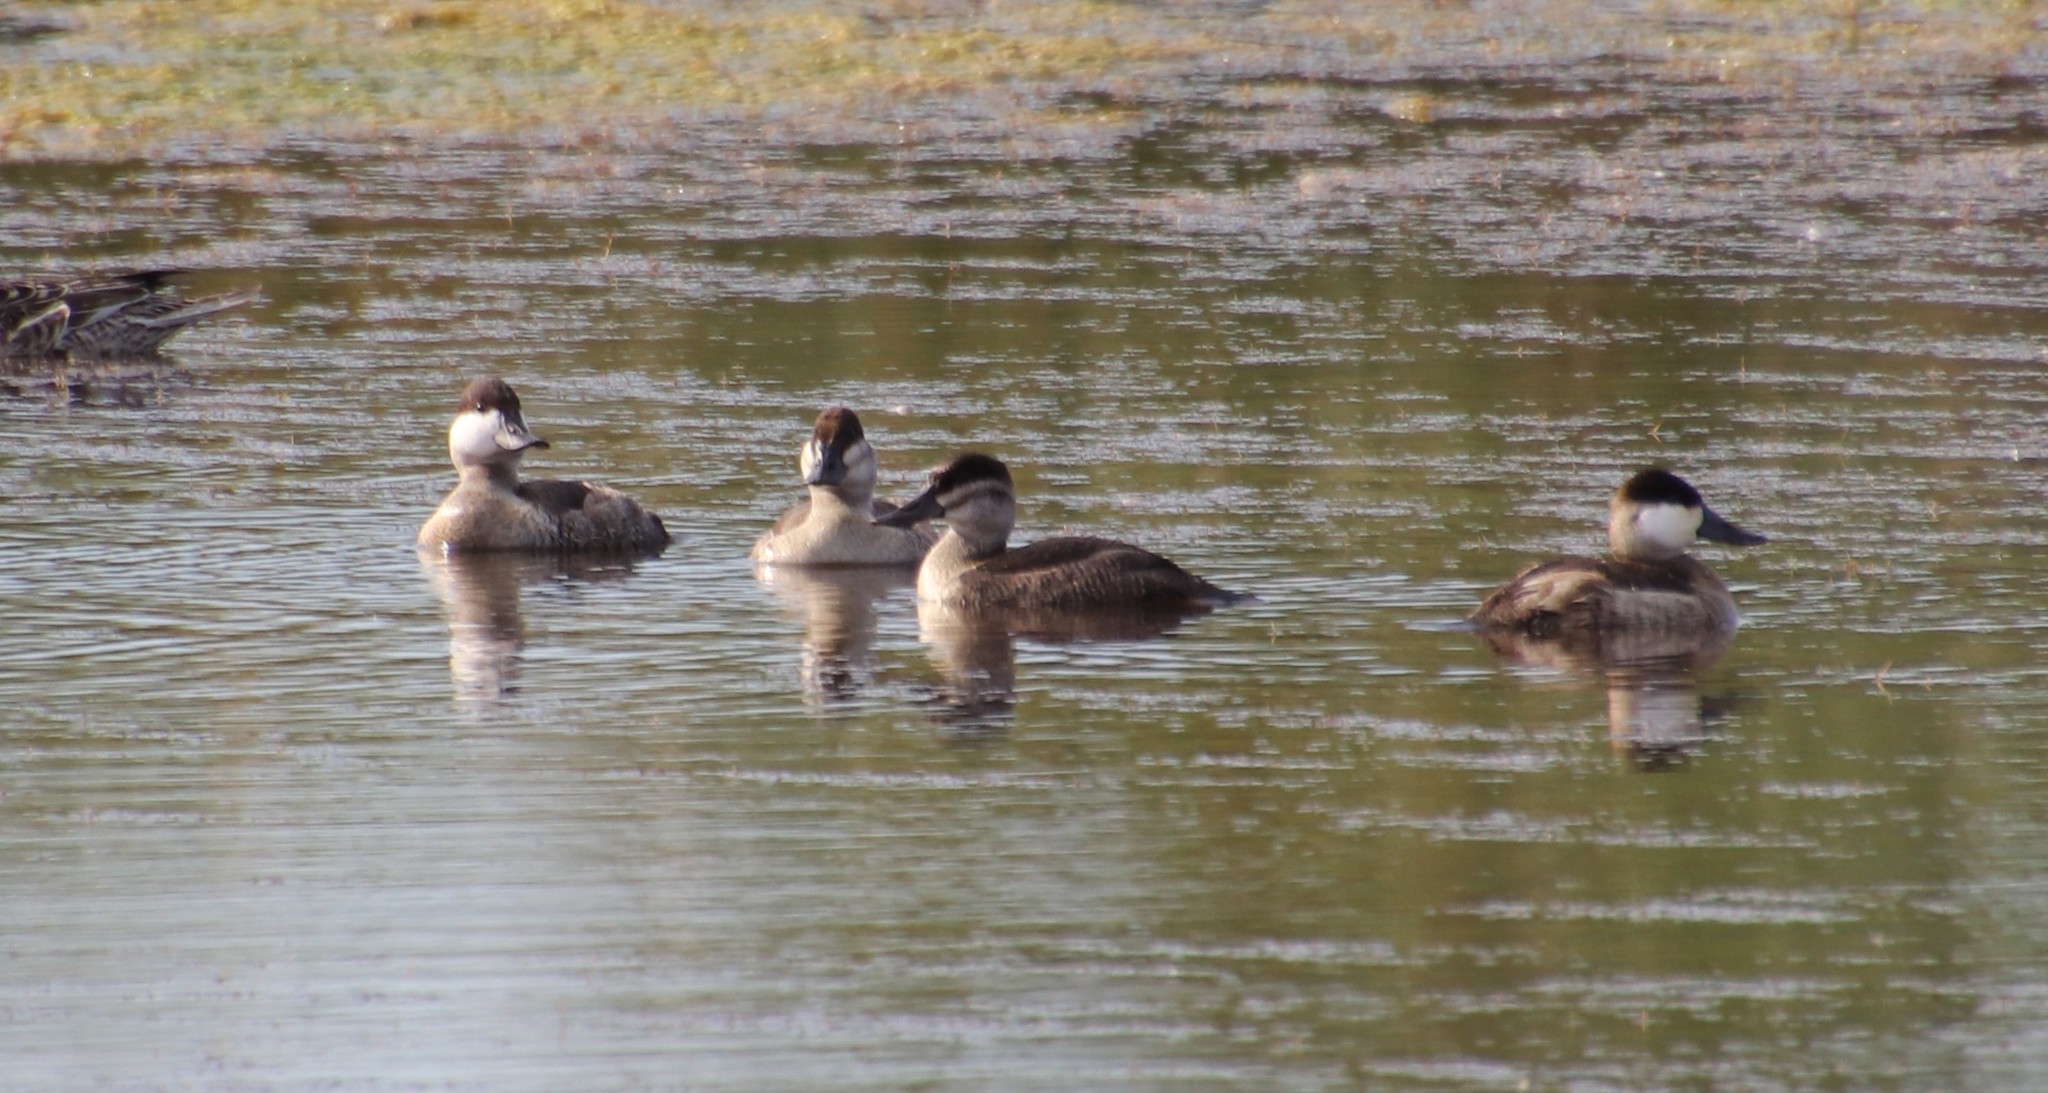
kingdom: Animalia
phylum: Chordata
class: Aves
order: Anseriformes
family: Anatidae
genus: Oxyura
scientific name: Oxyura jamaicensis
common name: Ruddy duck
